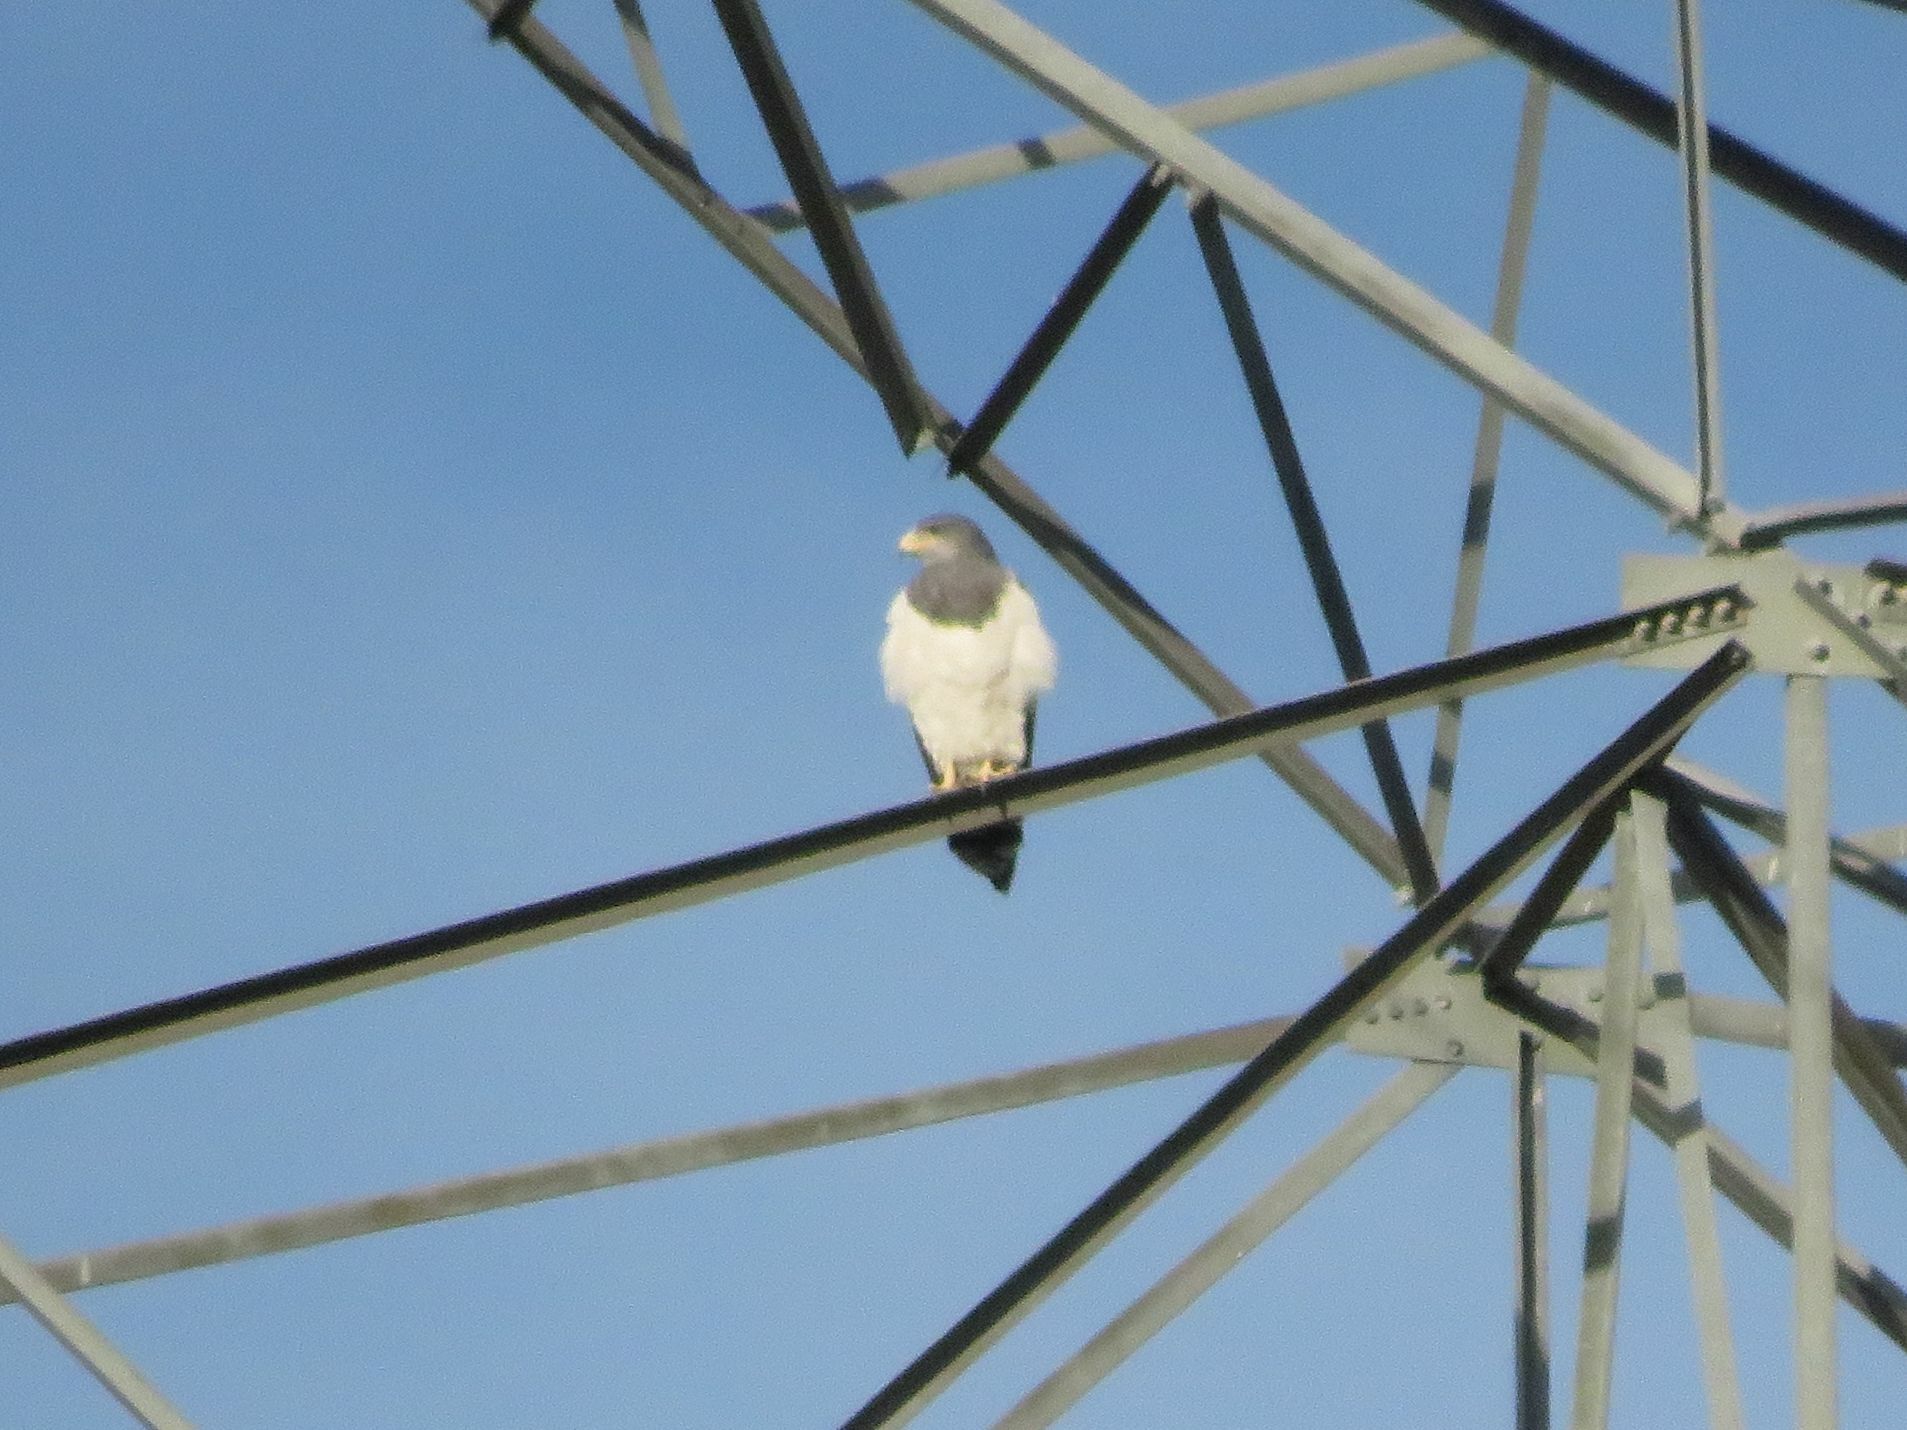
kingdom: Animalia
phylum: Chordata
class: Aves
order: Accipitriformes
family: Accipitridae
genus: Geranoaetus
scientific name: Geranoaetus melanoleucus
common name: Black-chested buzzard-eagle
